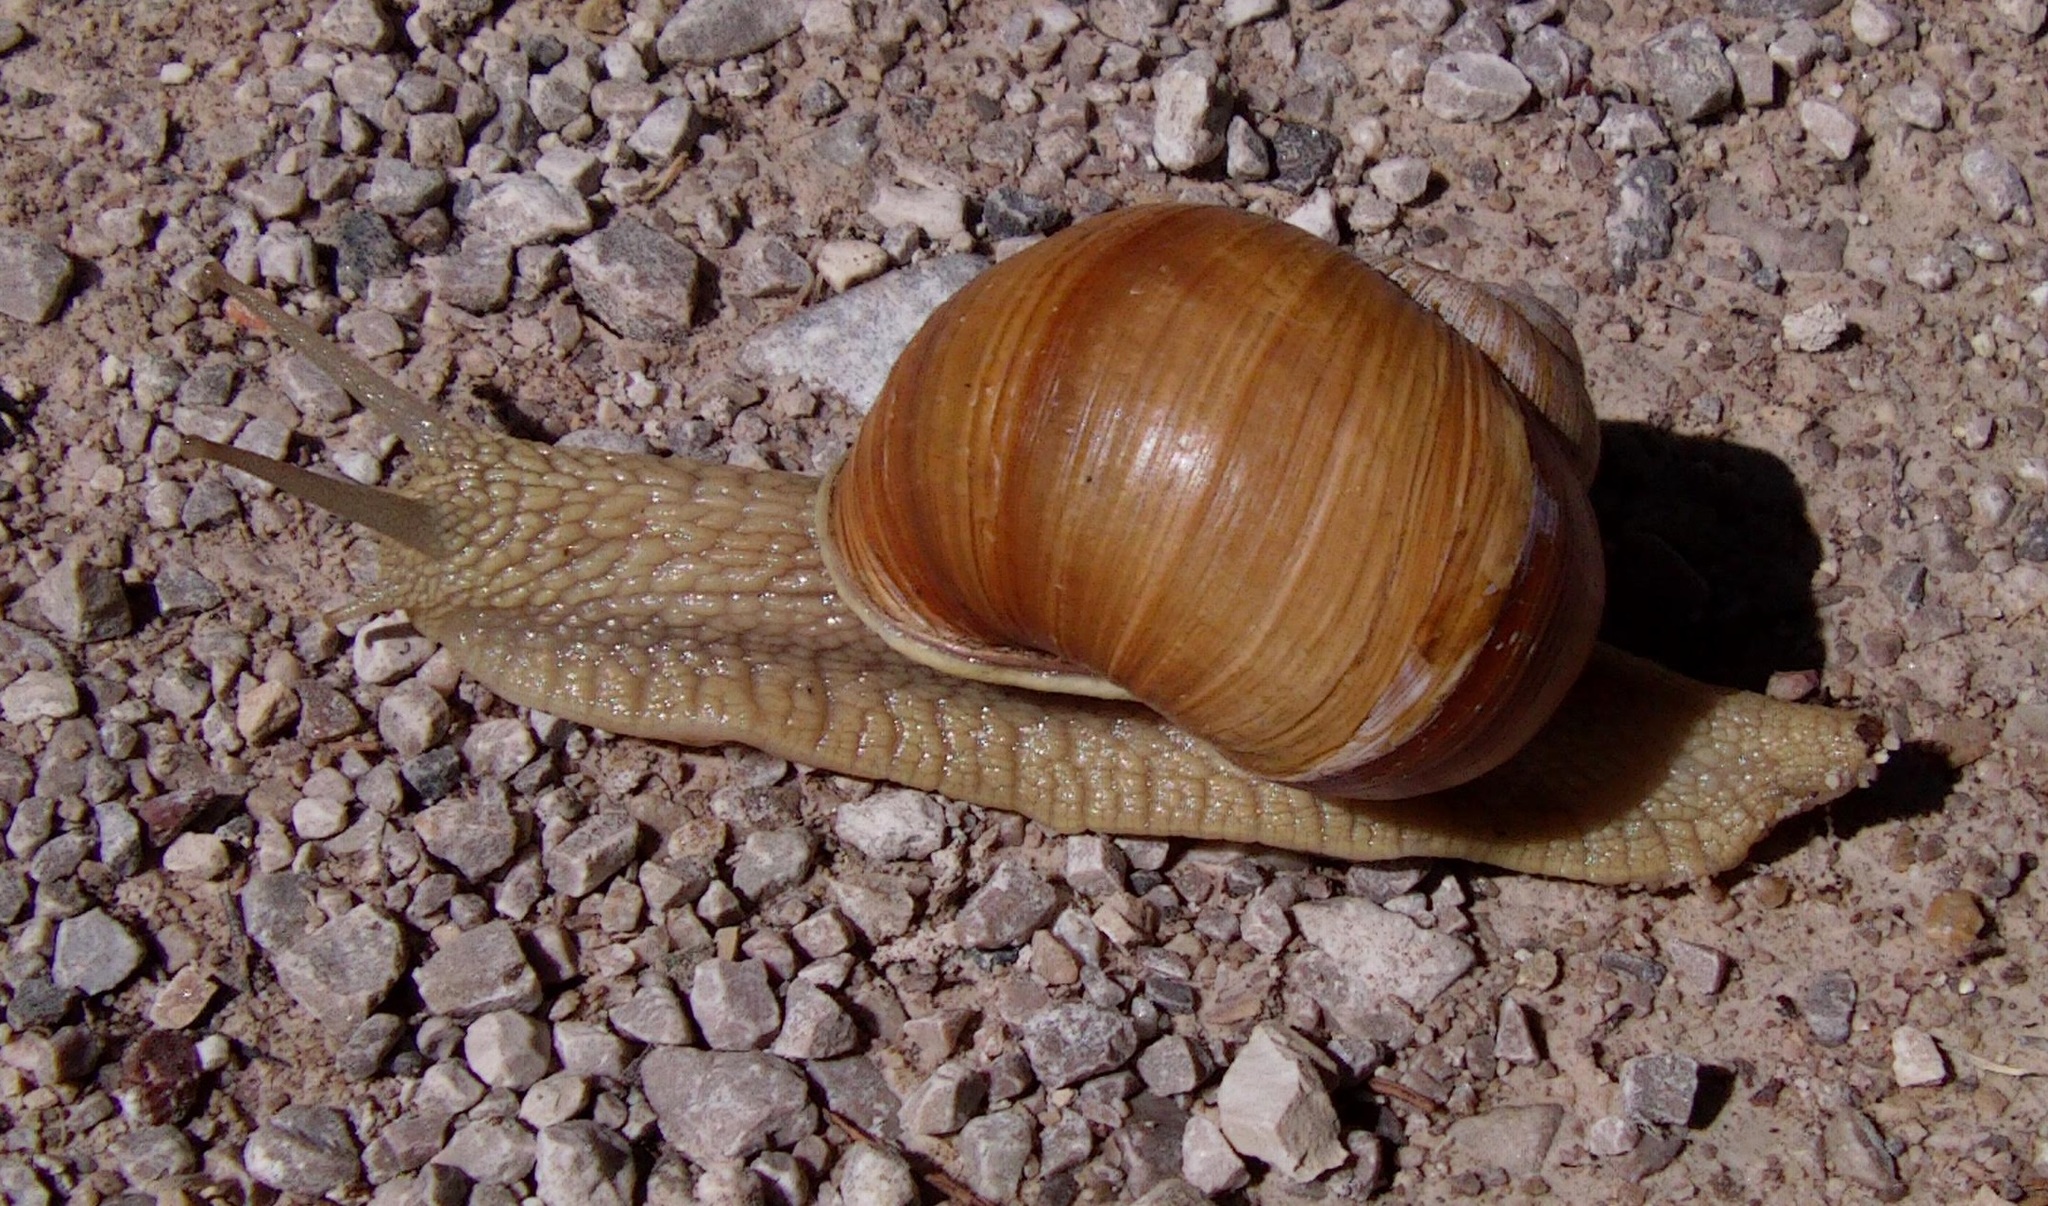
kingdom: Animalia
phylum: Mollusca
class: Gastropoda
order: Stylommatophora
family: Helicidae
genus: Helix
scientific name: Helix pomatia
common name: Roman snail
